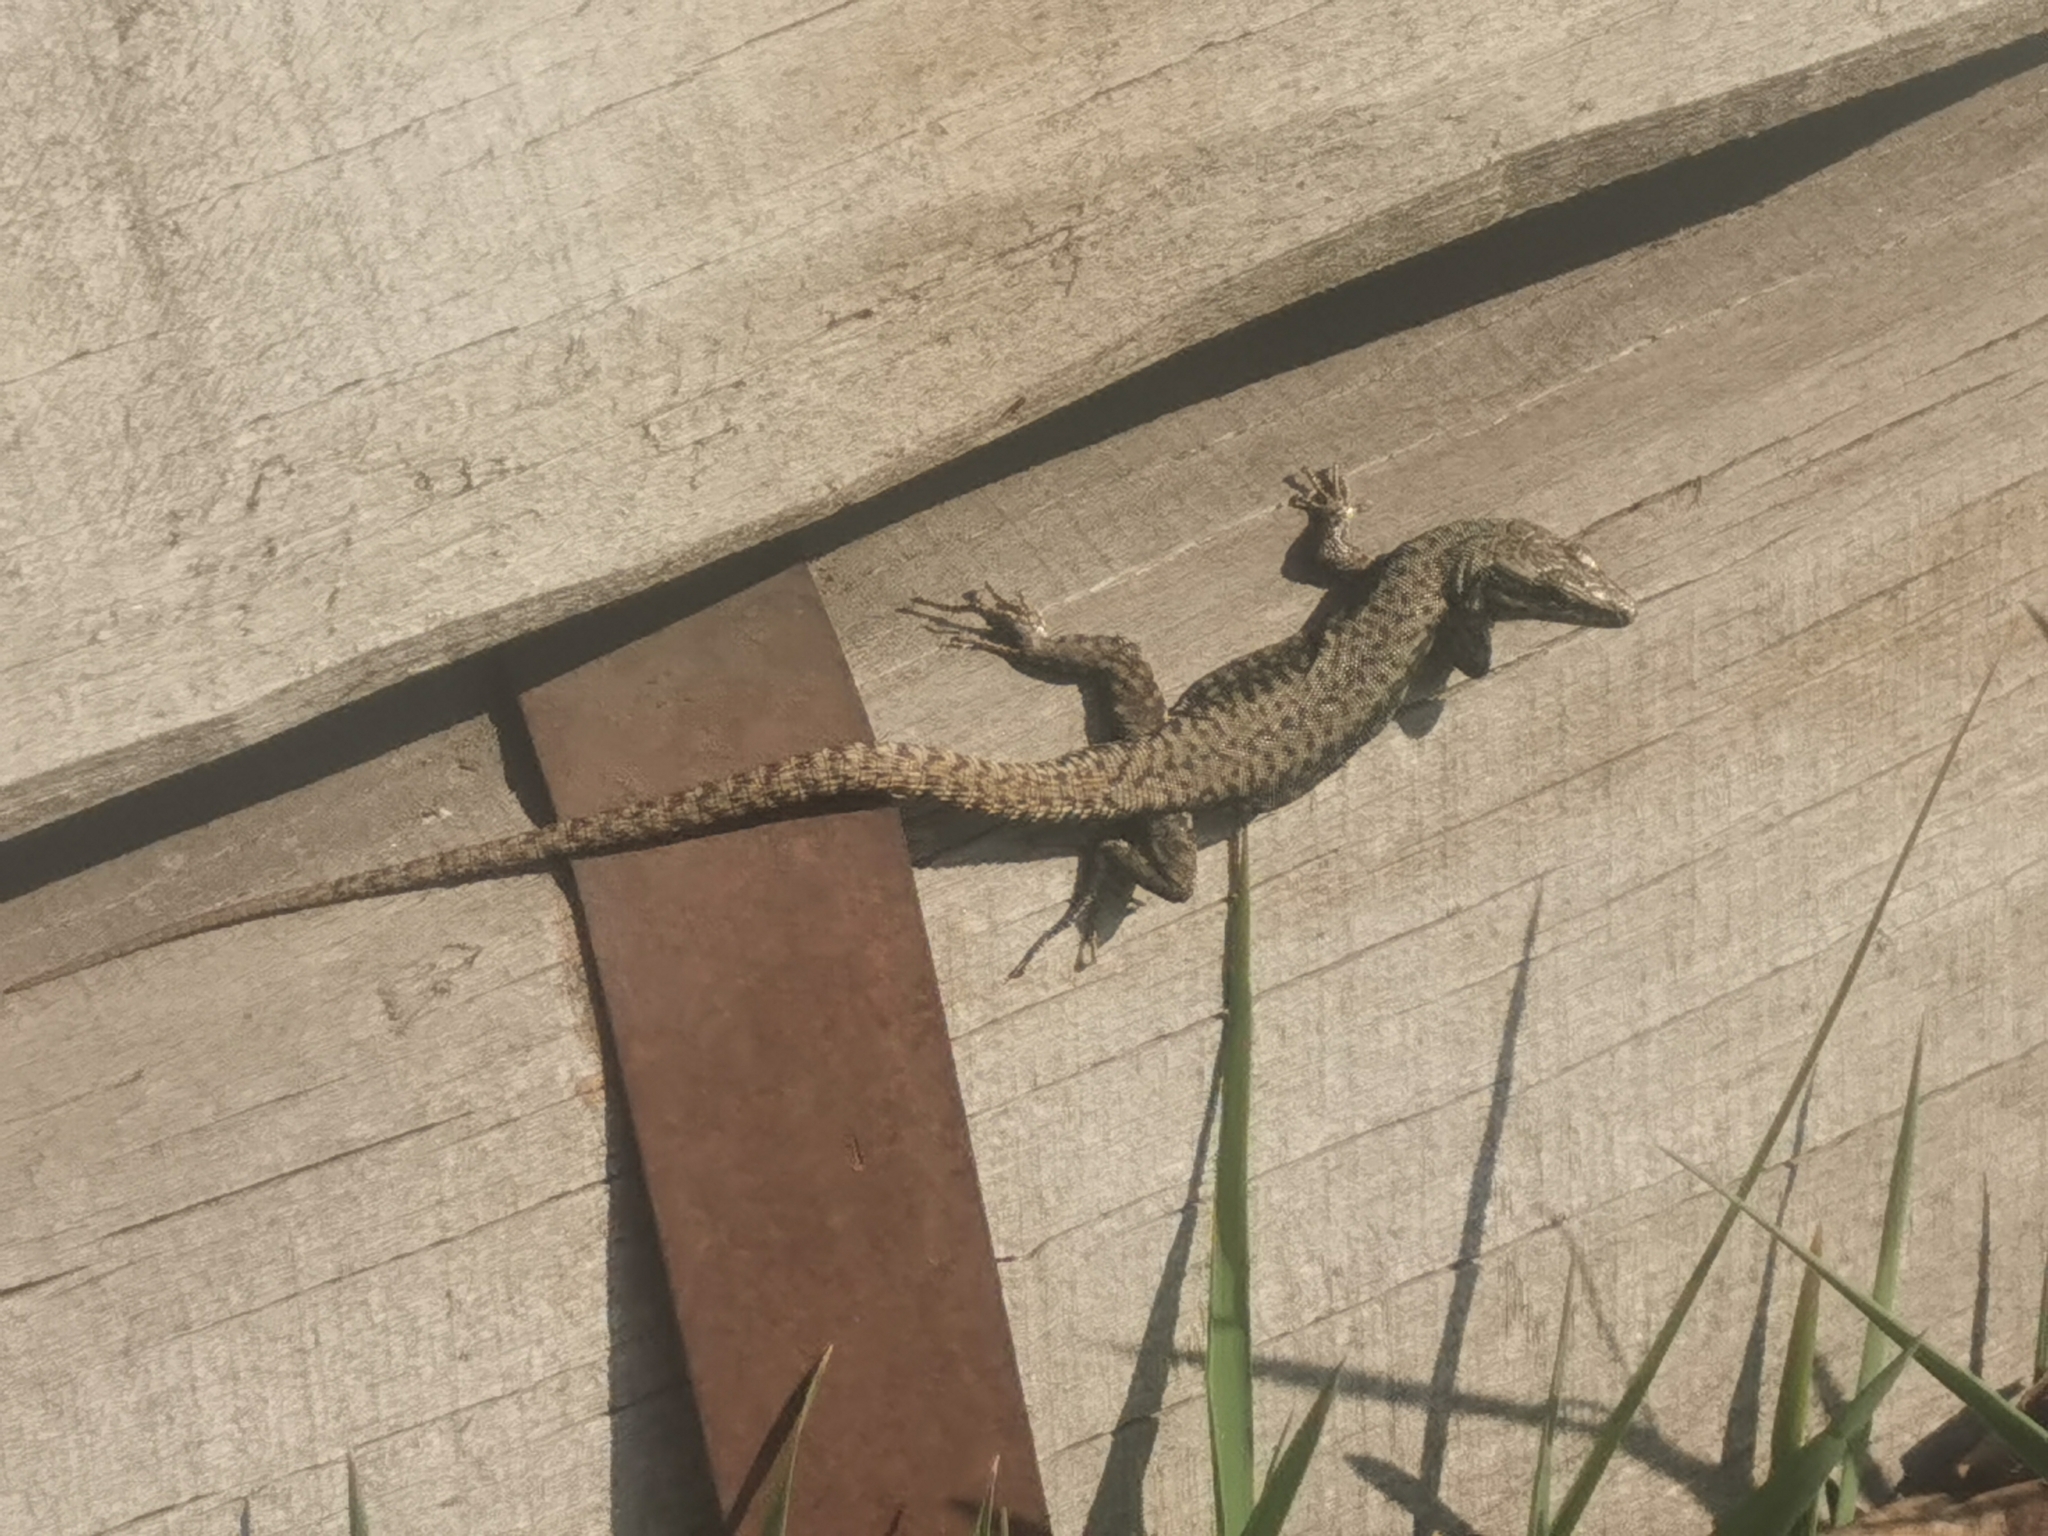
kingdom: Animalia
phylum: Chordata
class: Squamata
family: Lacertidae
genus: Podarcis
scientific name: Podarcis muralis
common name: Common wall lizard
